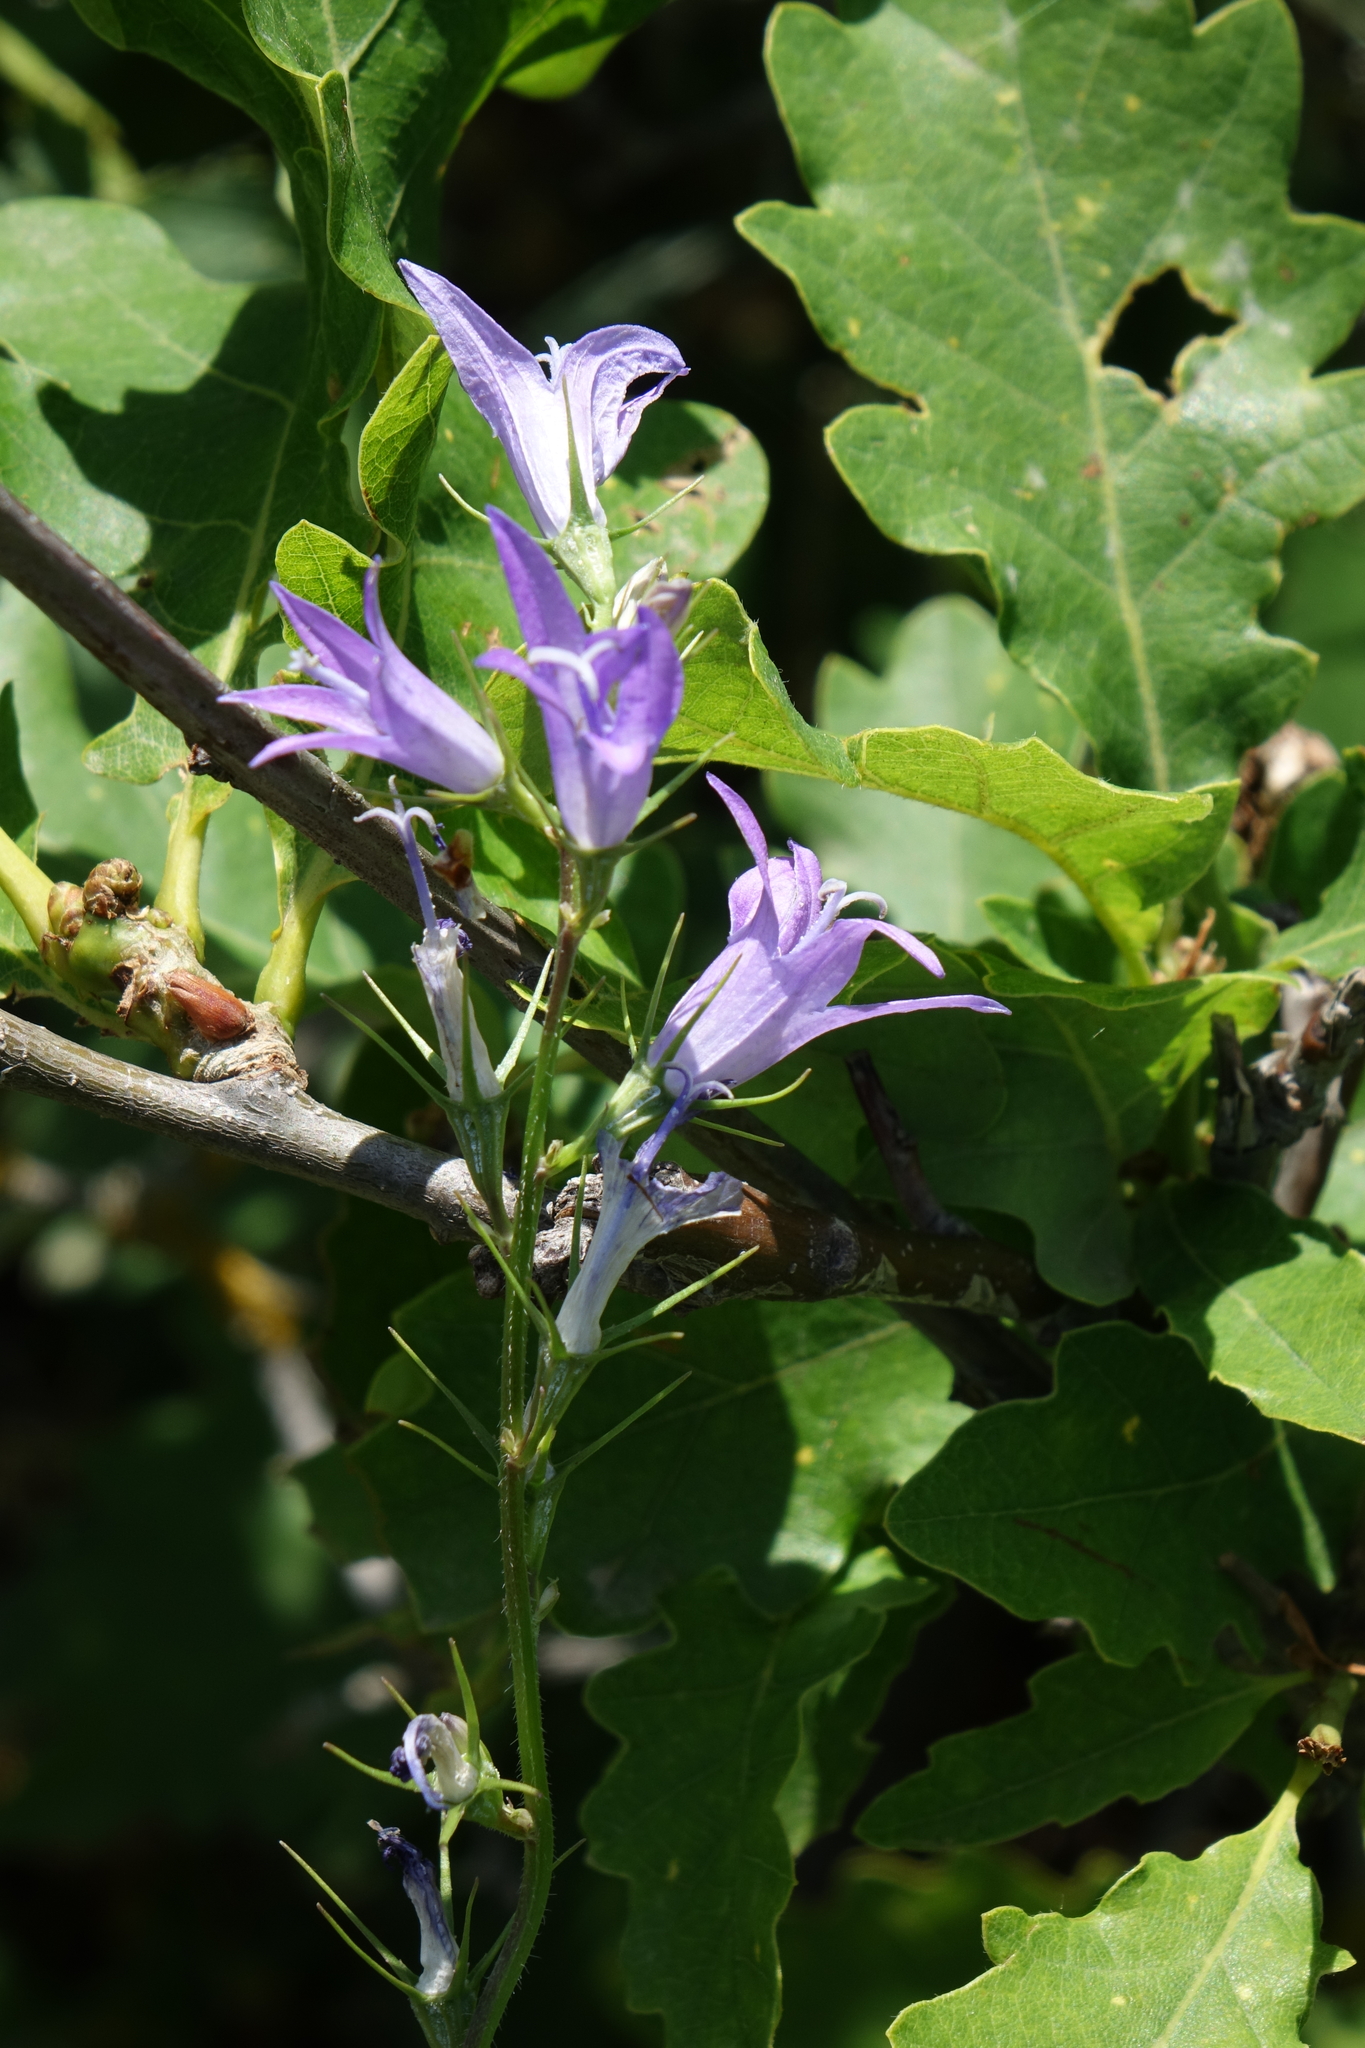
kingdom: Plantae
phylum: Tracheophyta
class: Magnoliopsida
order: Asterales
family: Campanulaceae
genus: Campanula
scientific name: Campanula rapunculus
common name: Rampion bellflower
